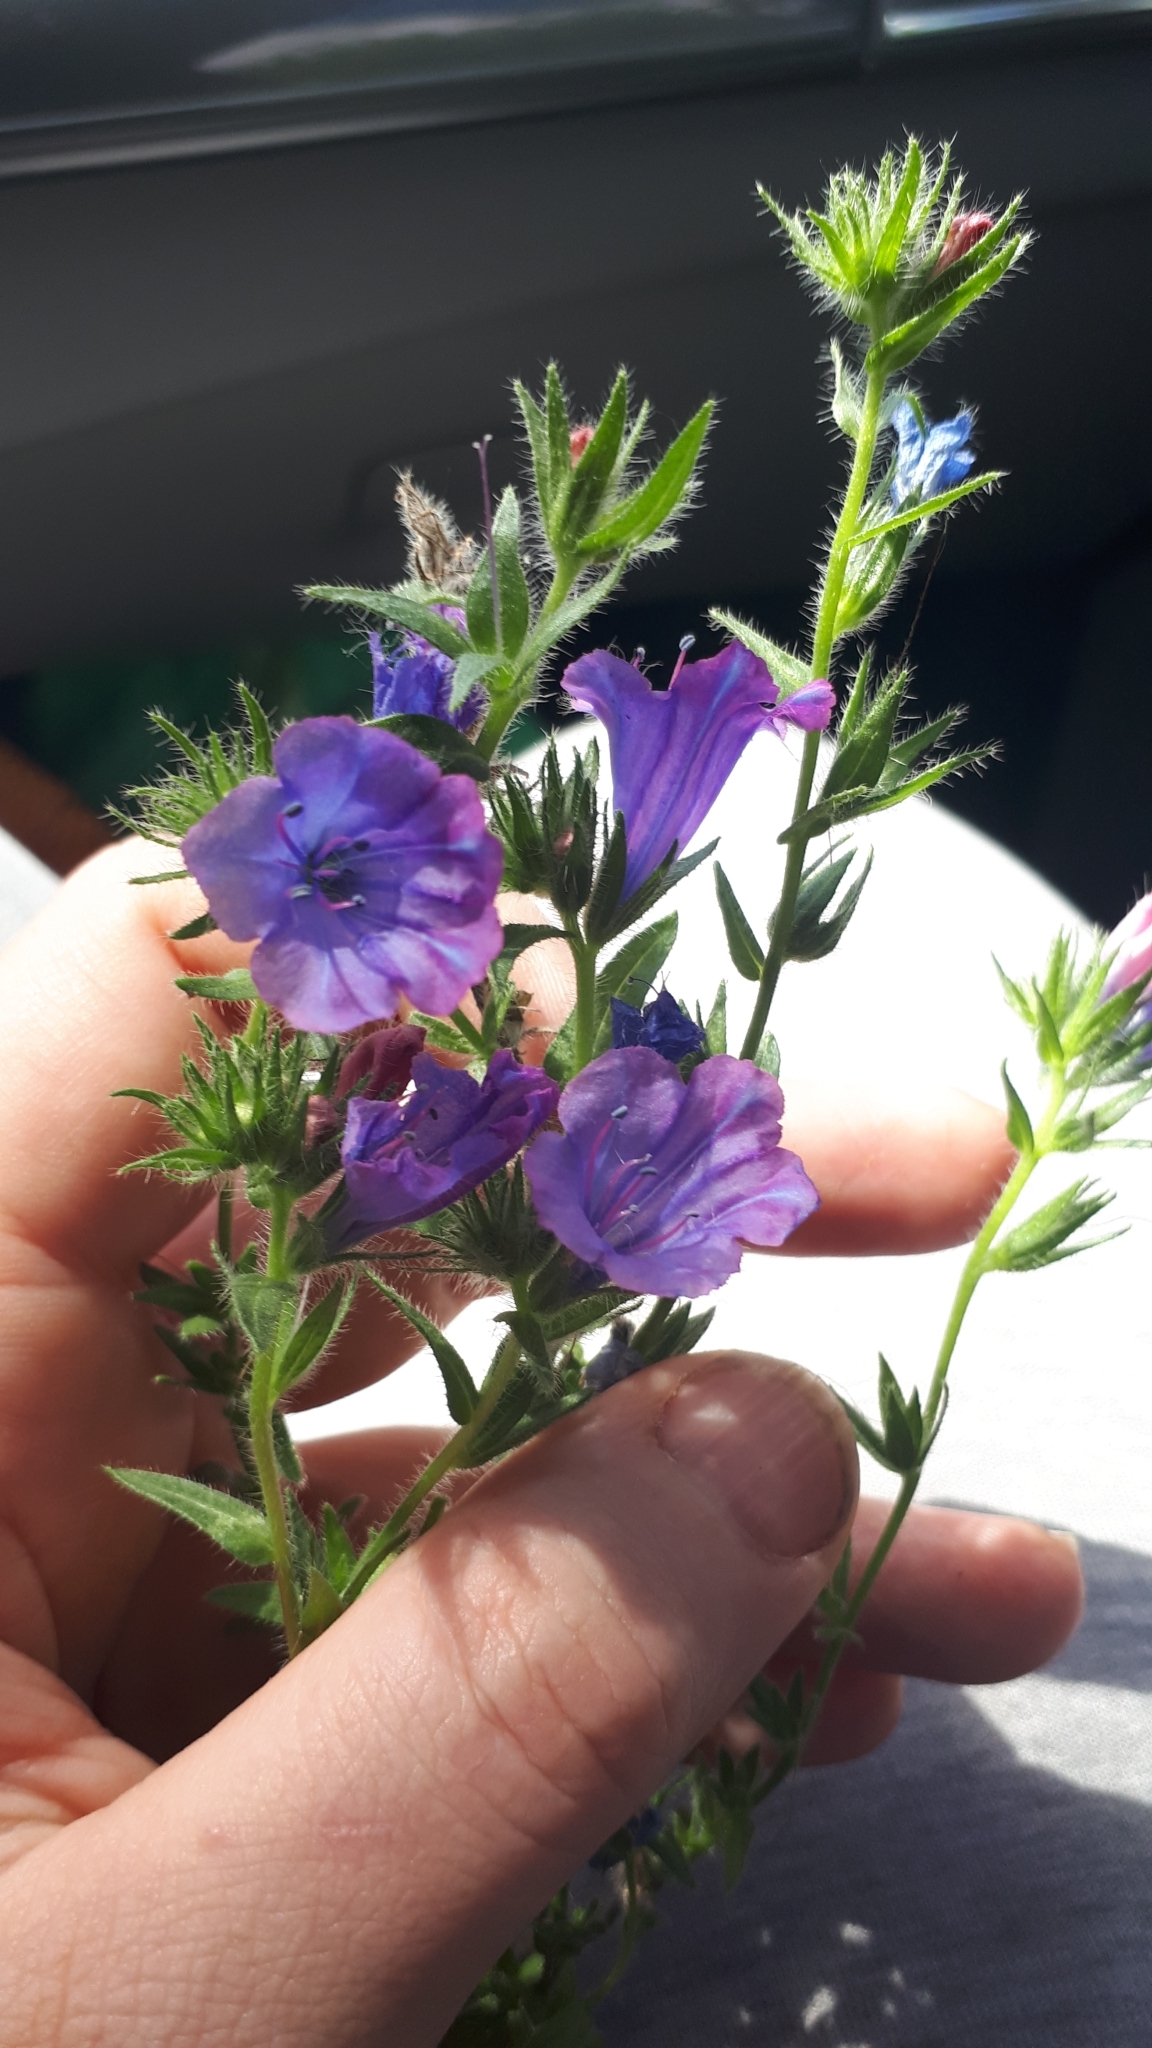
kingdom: Plantae
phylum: Tracheophyta
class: Magnoliopsida
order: Boraginales
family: Boraginaceae
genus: Echium
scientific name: Echium plantagineum
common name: Purple viper's-bugloss
